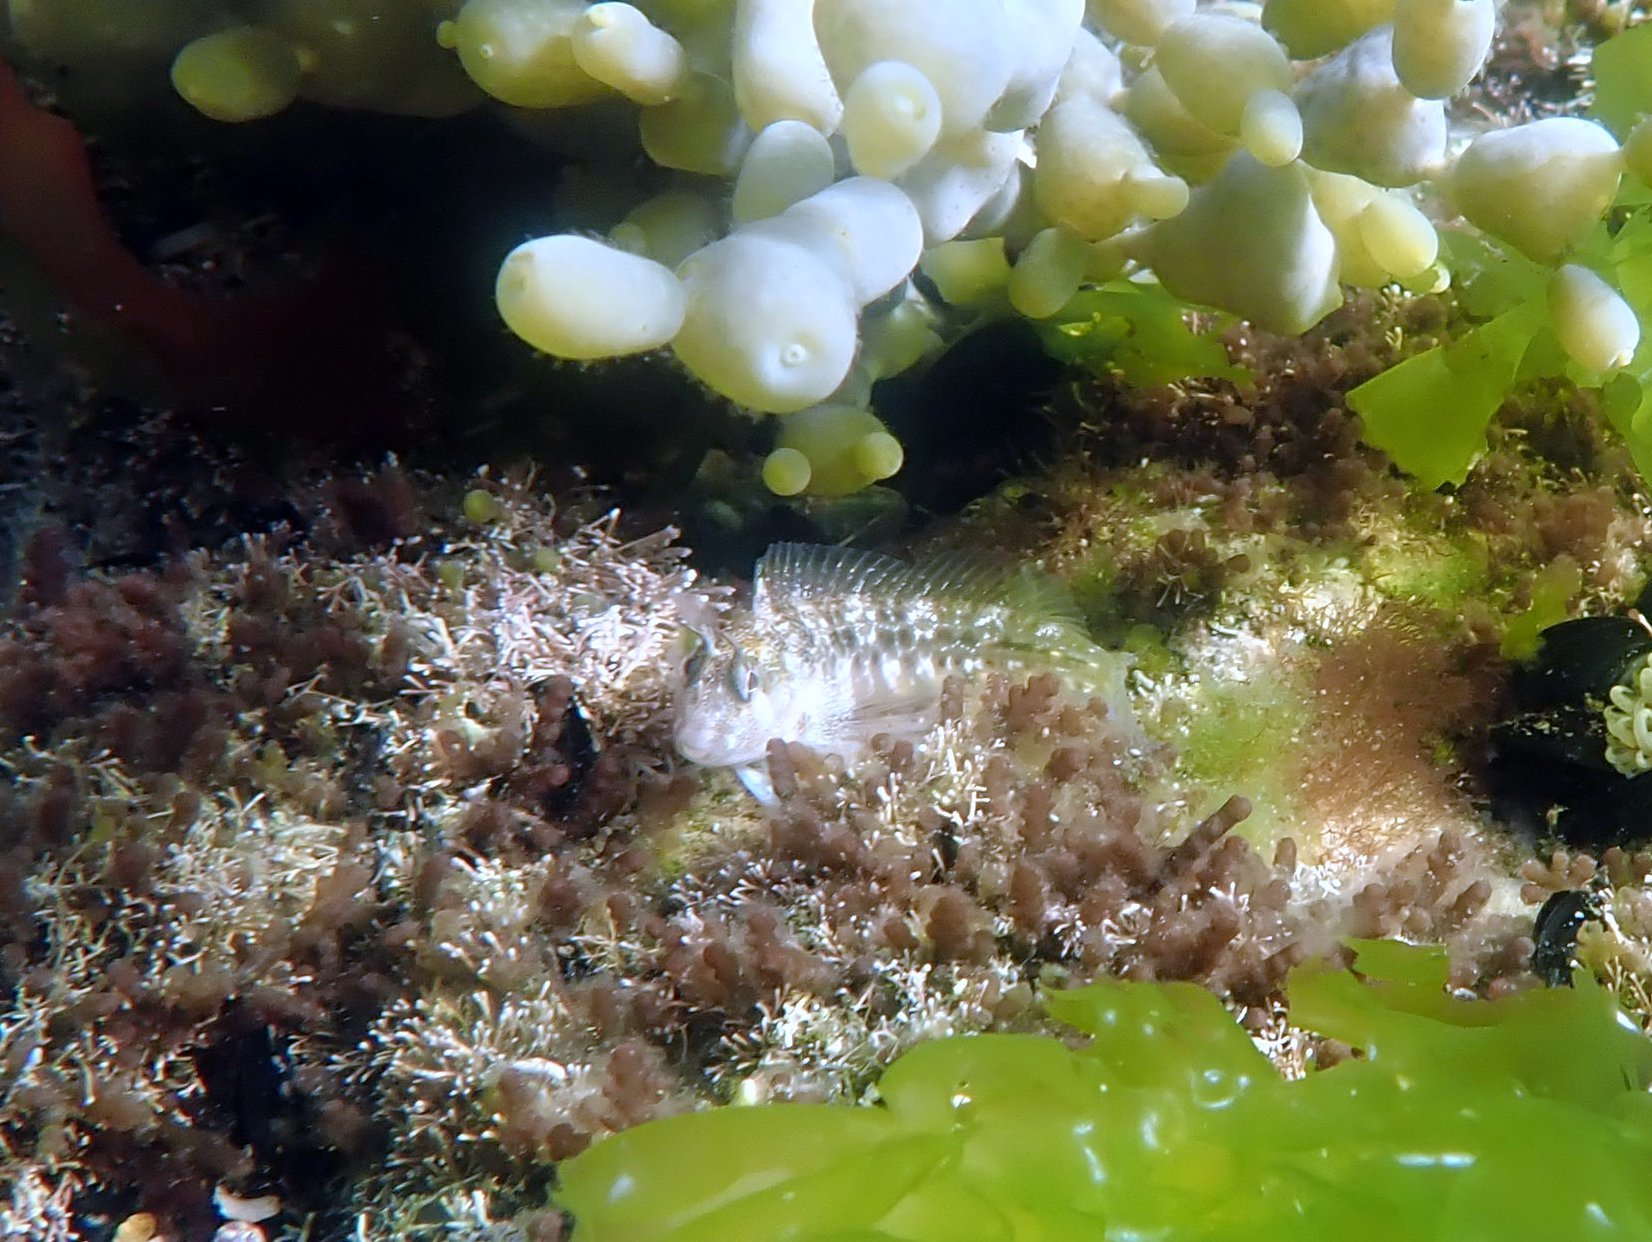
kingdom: Animalia
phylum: Chordata
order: Perciformes
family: Blenniidae
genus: Parablennius
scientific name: Parablennius tasmanianus
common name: Tasmanian blenny
